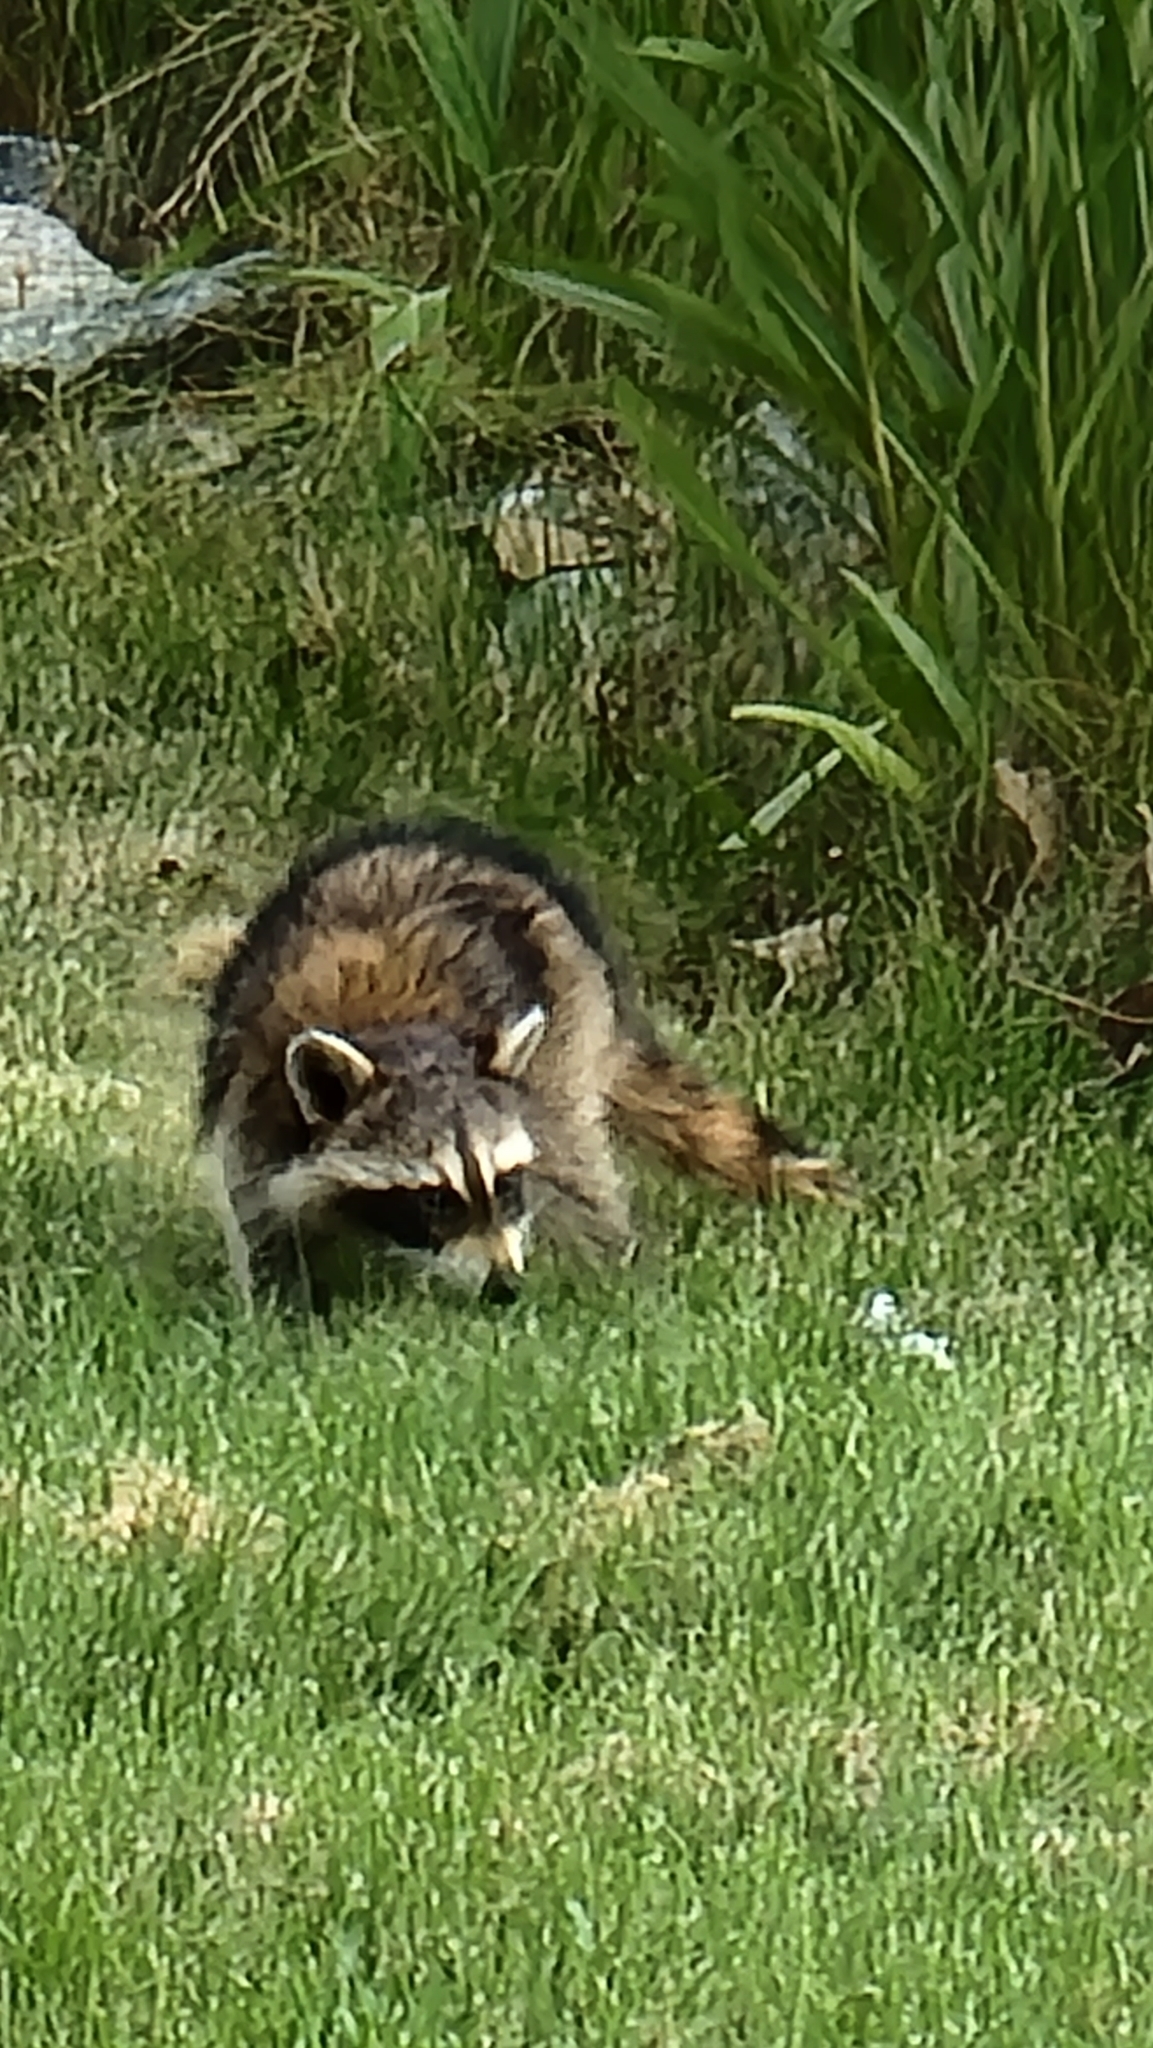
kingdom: Animalia
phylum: Chordata
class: Mammalia
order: Carnivora
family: Procyonidae
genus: Procyon
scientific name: Procyon lotor
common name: Raccoon
